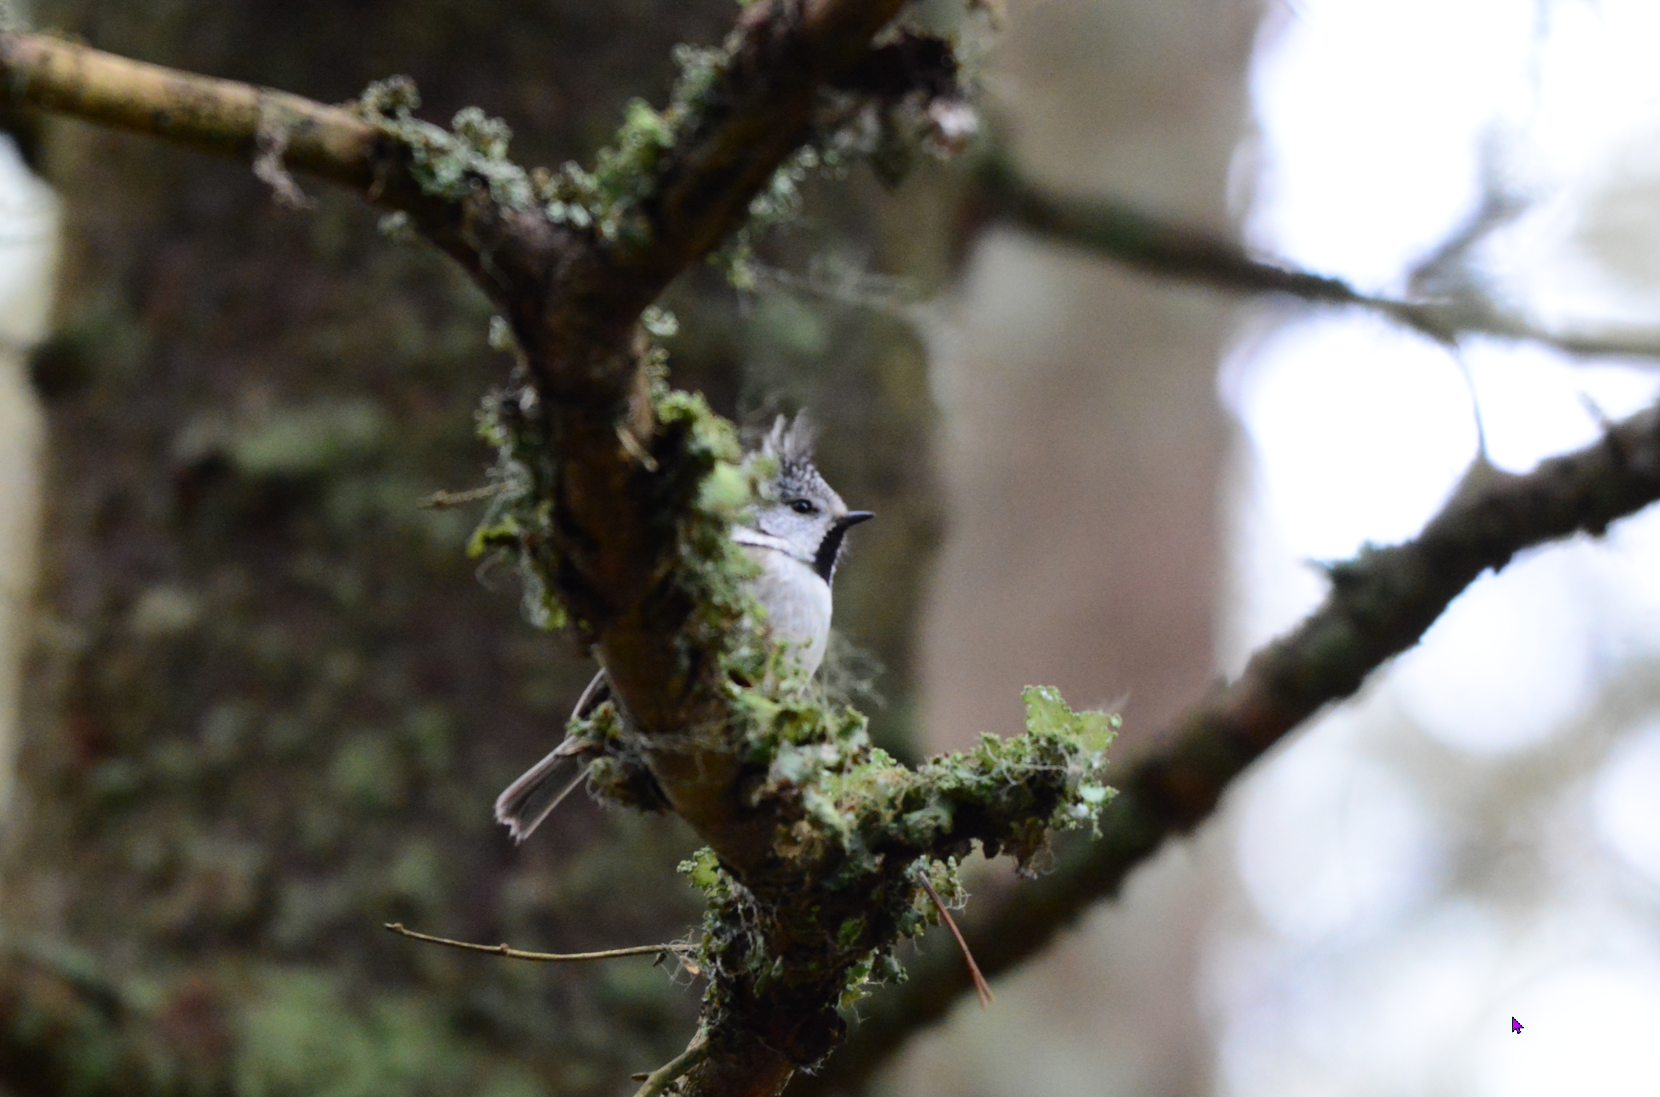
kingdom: Animalia
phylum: Chordata
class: Aves
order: Passeriformes
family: Paridae
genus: Lophophanes
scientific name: Lophophanes cristatus
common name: European crested tit
